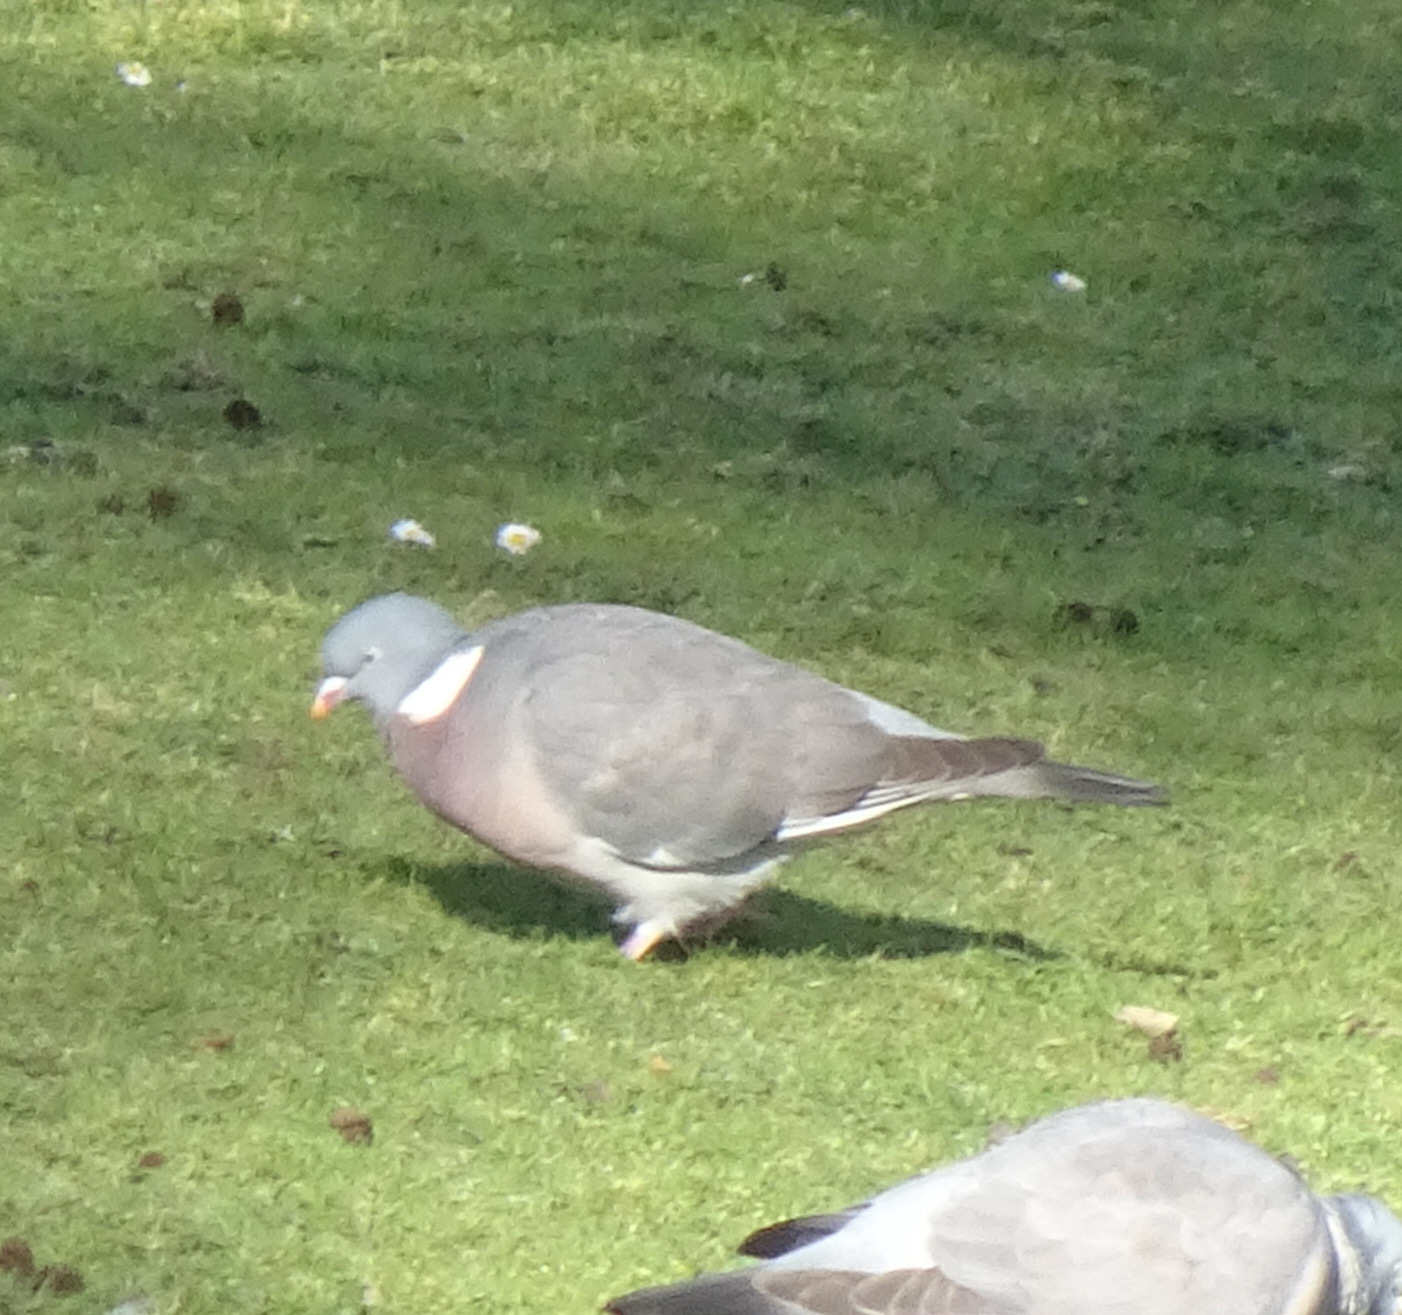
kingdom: Animalia
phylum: Chordata
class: Aves
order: Columbiformes
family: Columbidae
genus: Columba
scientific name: Columba palumbus
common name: Common wood pigeon
